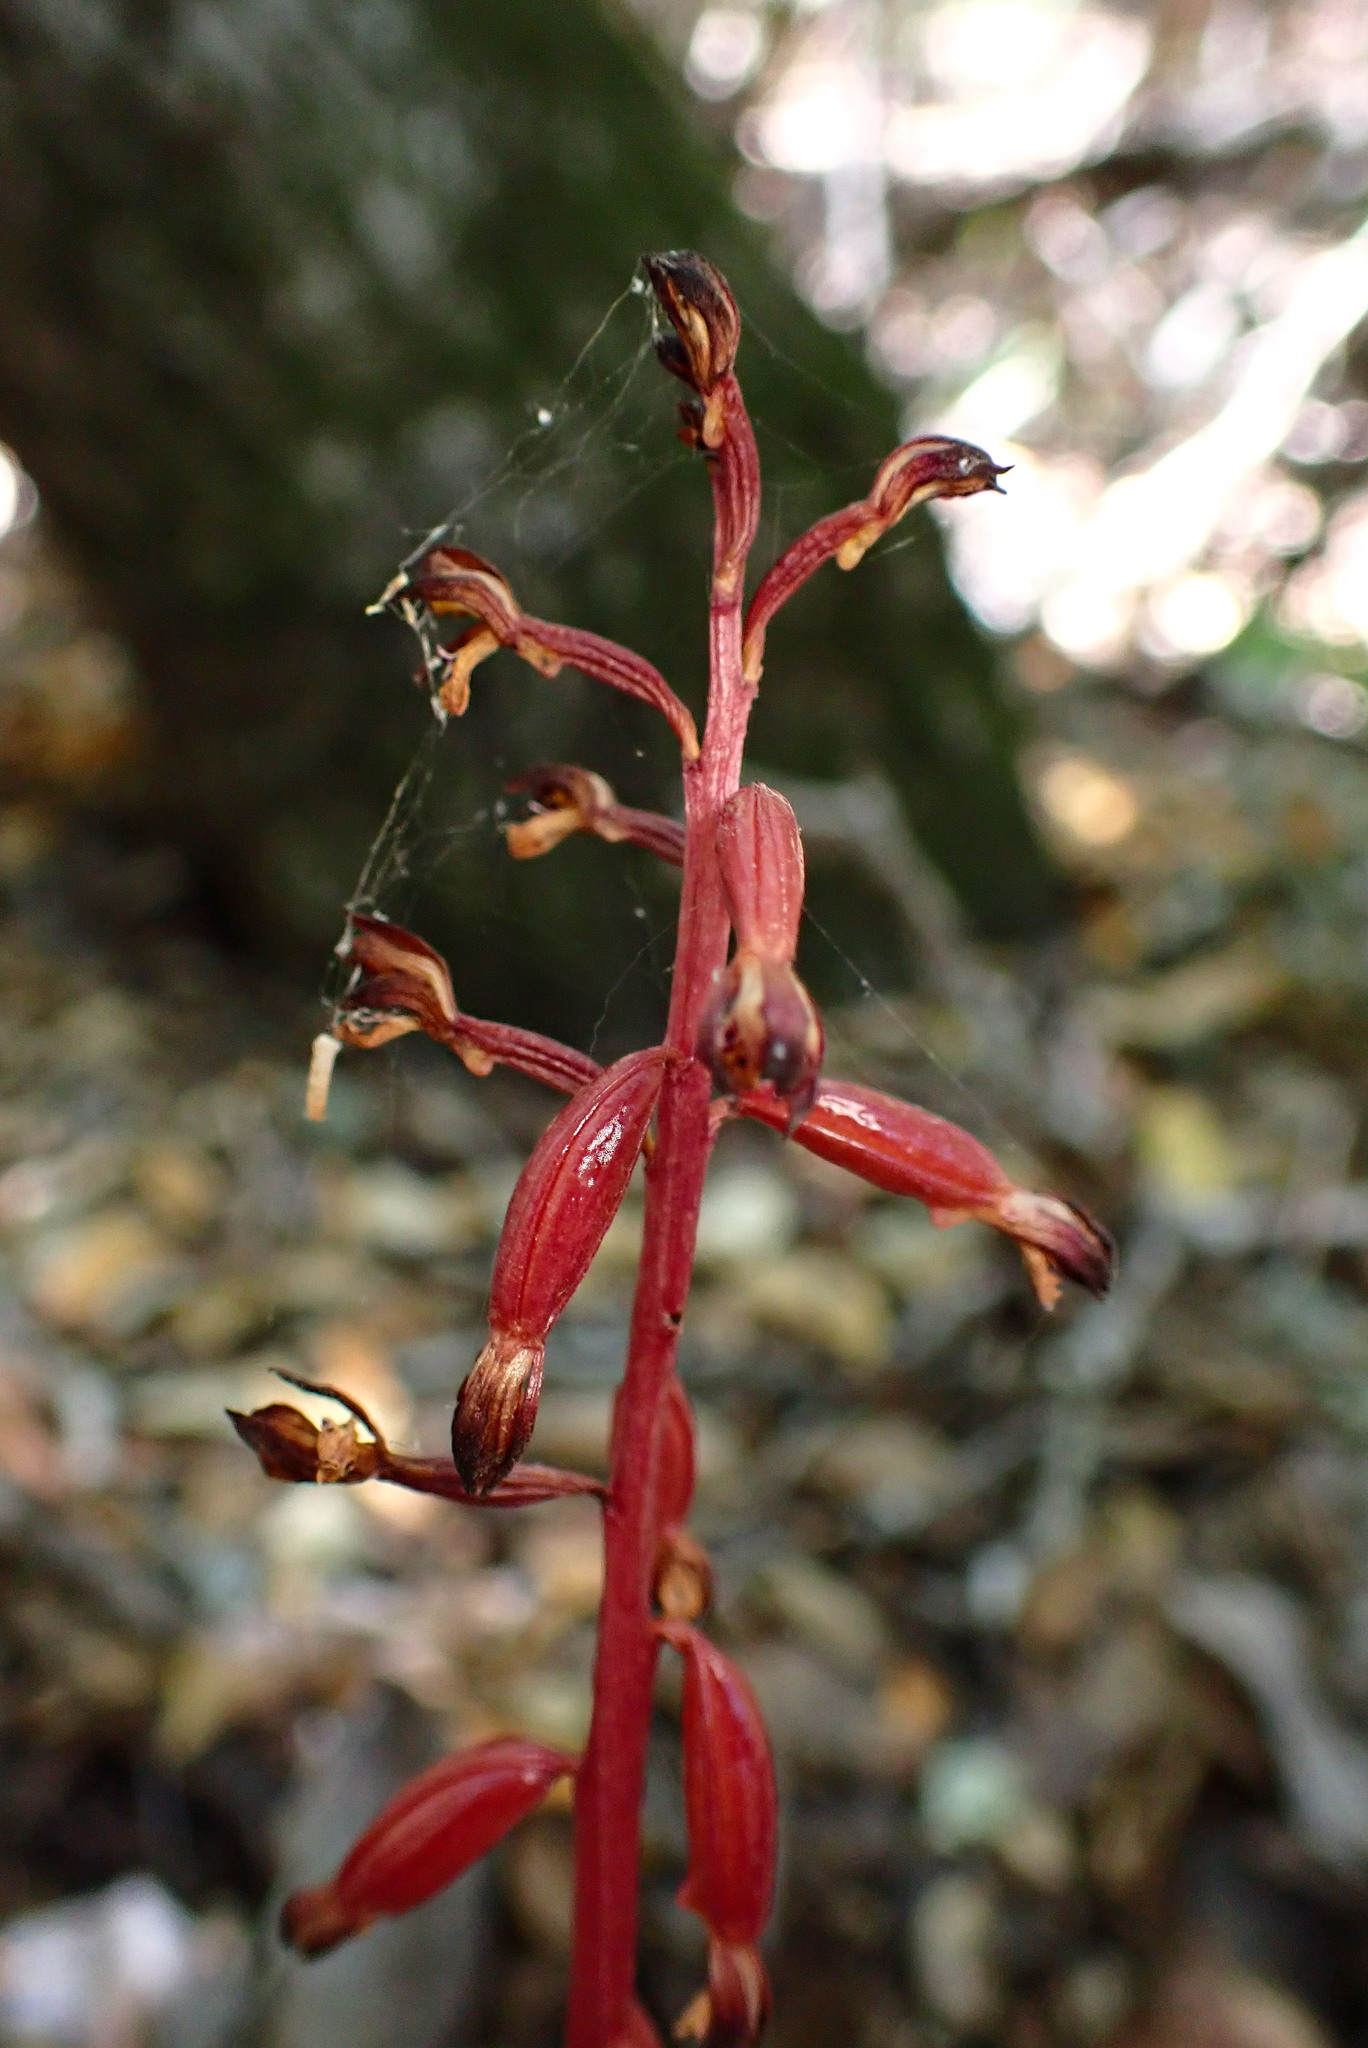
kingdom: Plantae
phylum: Tracheophyta
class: Liliopsida
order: Asparagales
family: Orchidaceae
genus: Corallorhiza
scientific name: Corallorhiza maculata
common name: Spotted coralroot
